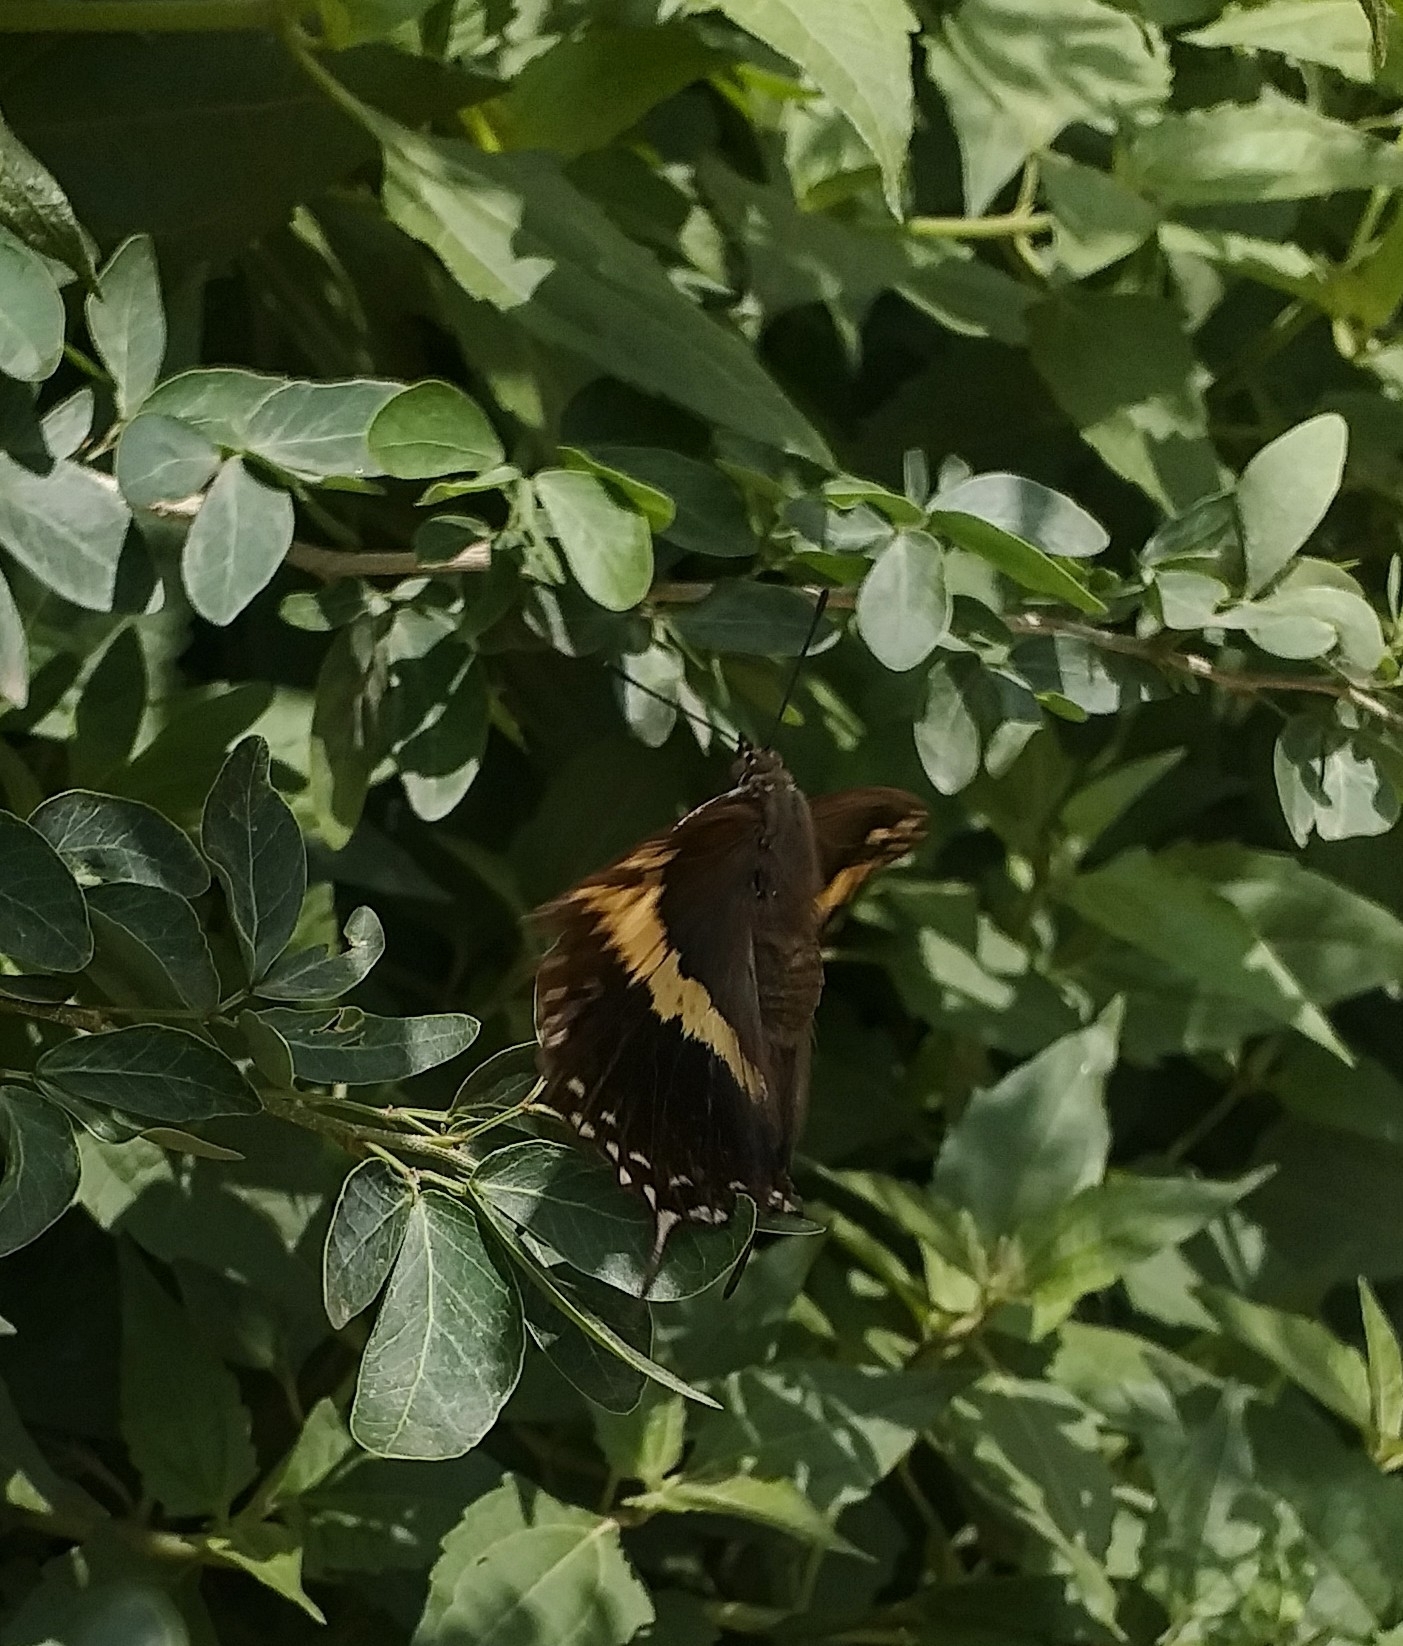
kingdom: Animalia
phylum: Arthropoda
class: Insecta
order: Lepidoptera
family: Nymphalidae
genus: Charaxes
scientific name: Charaxes solon
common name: Black rajah
